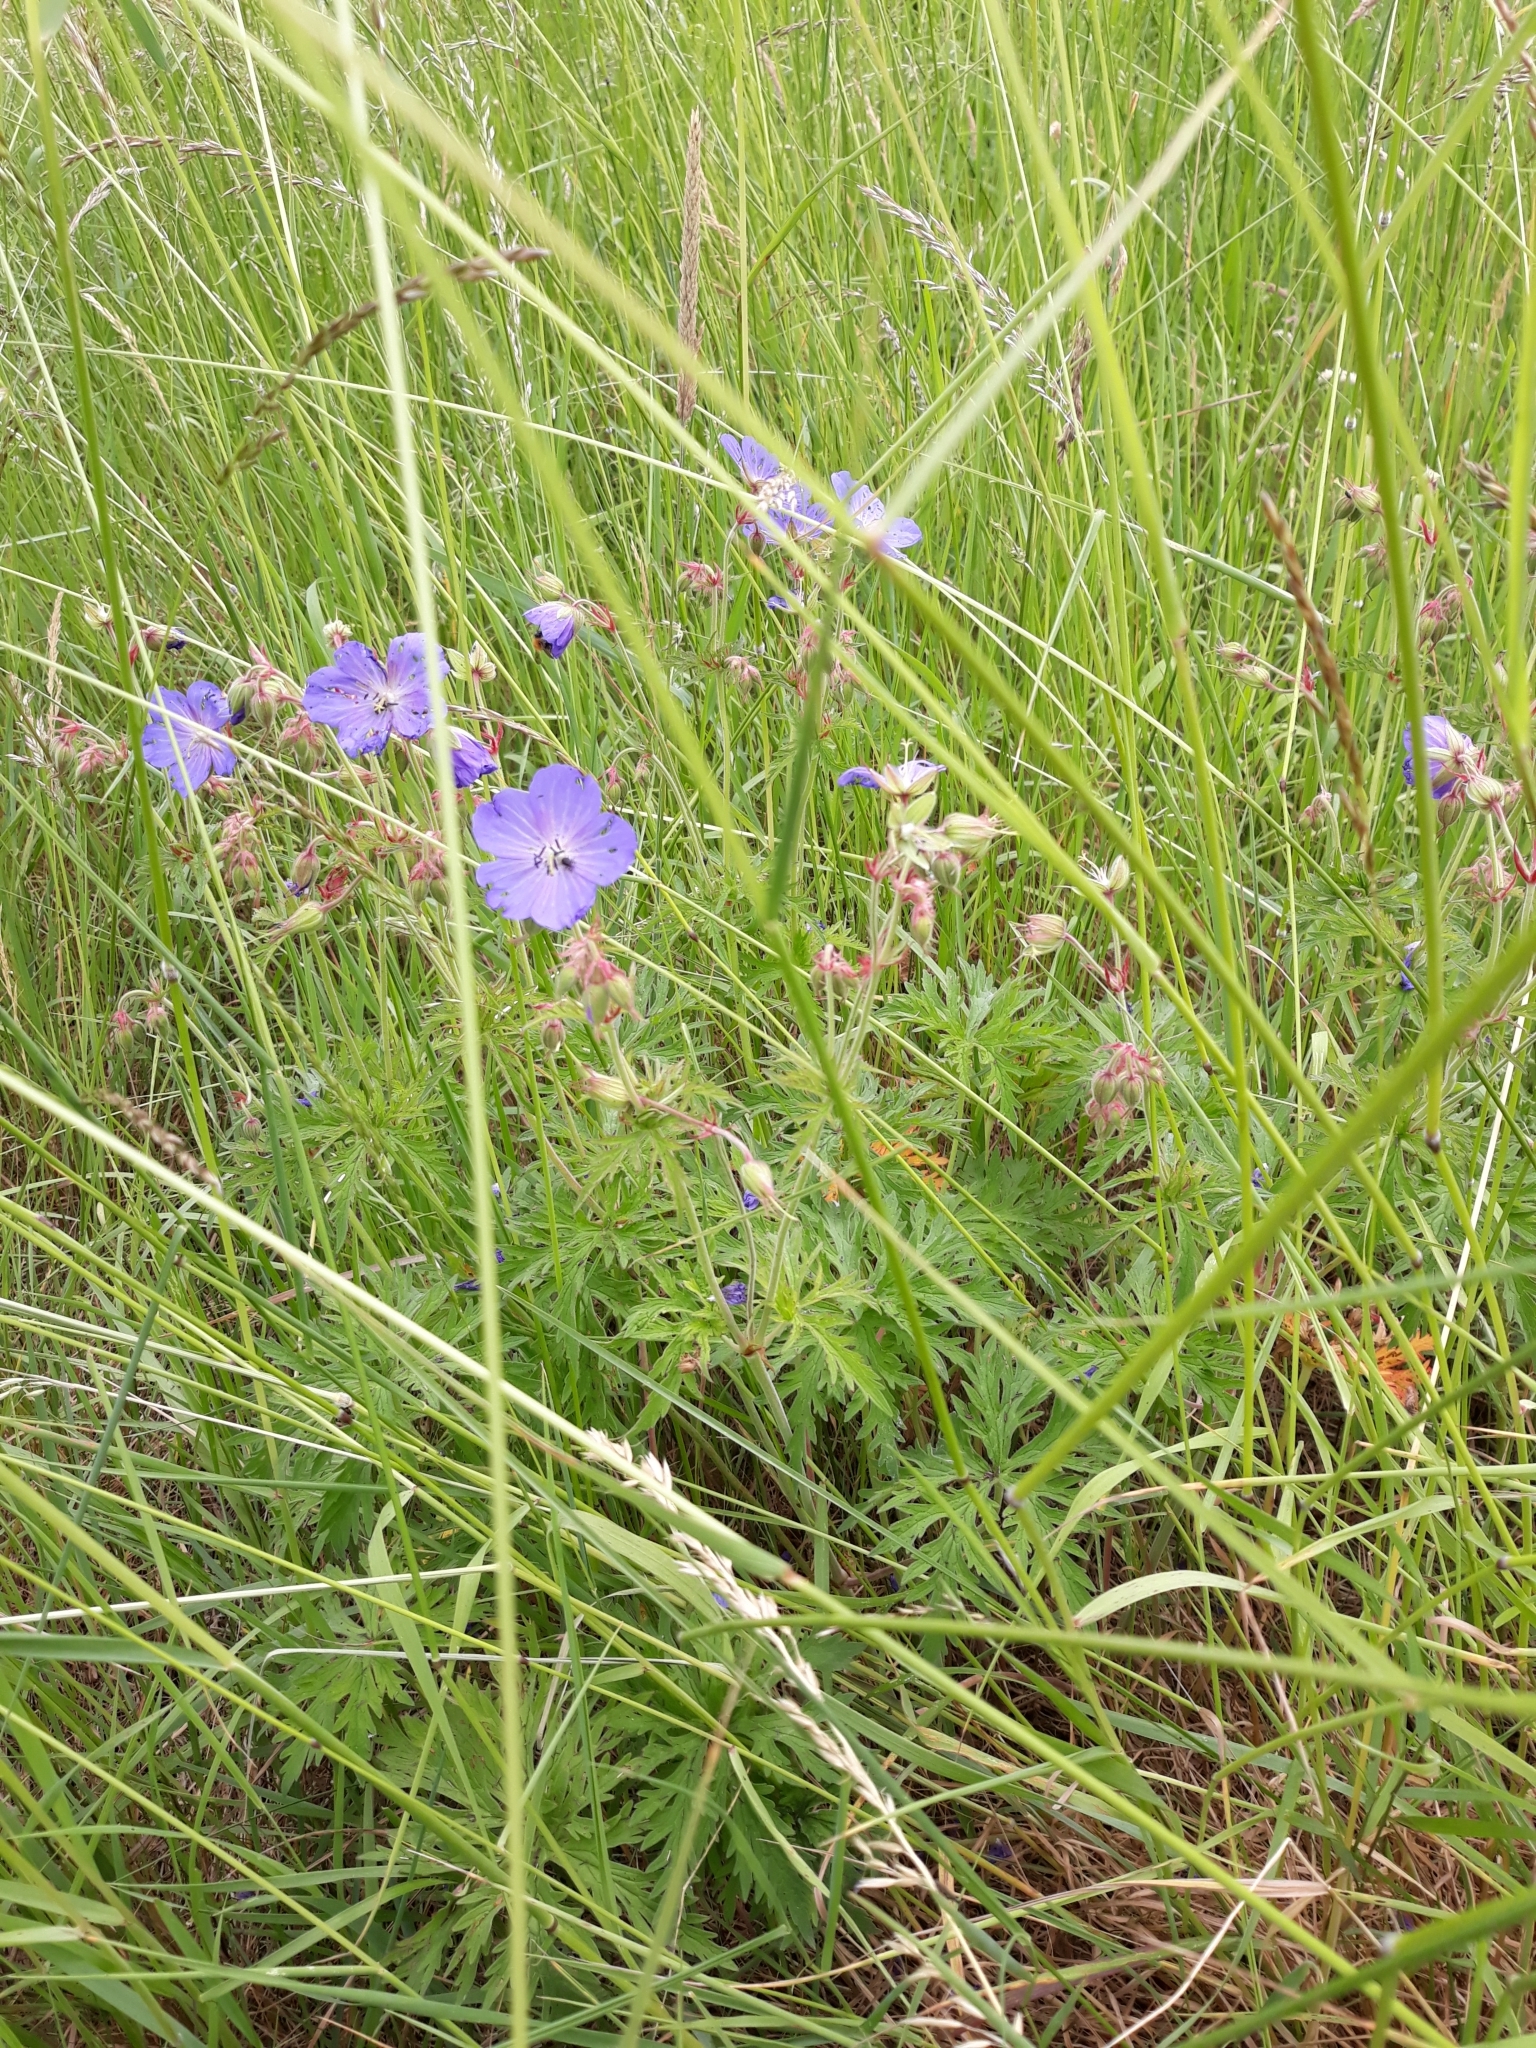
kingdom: Plantae
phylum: Tracheophyta
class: Magnoliopsida
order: Geraniales
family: Geraniaceae
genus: Geranium
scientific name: Geranium pratense
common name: Meadow crane's-bill
